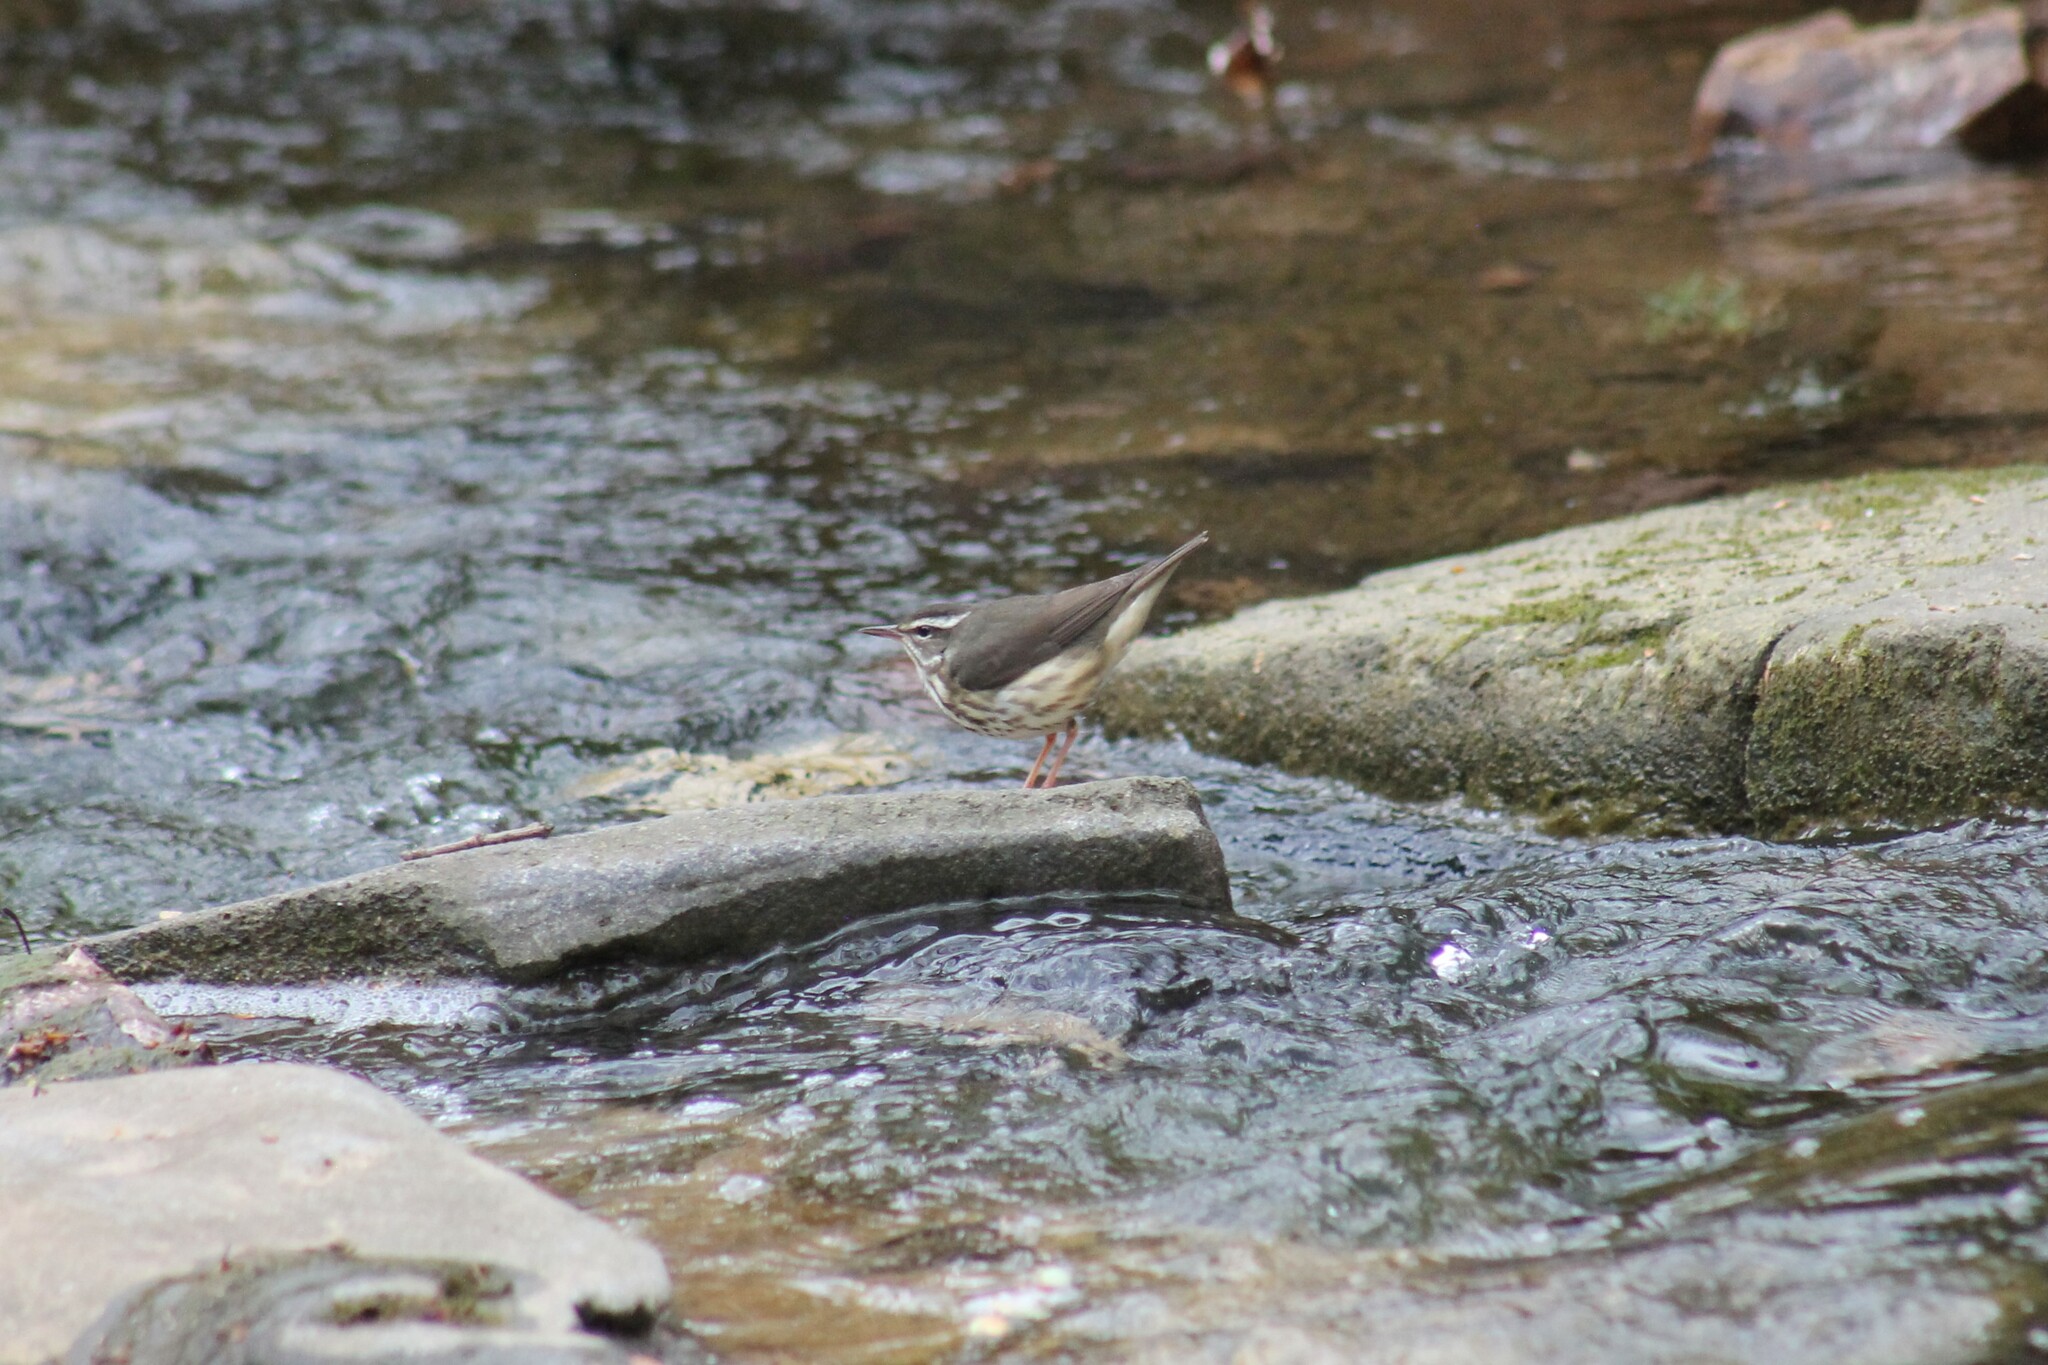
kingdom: Animalia
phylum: Chordata
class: Aves
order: Passeriformes
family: Parulidae
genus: Parkesia
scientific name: Parkesia motacilla
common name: Louisiana waterthrush
